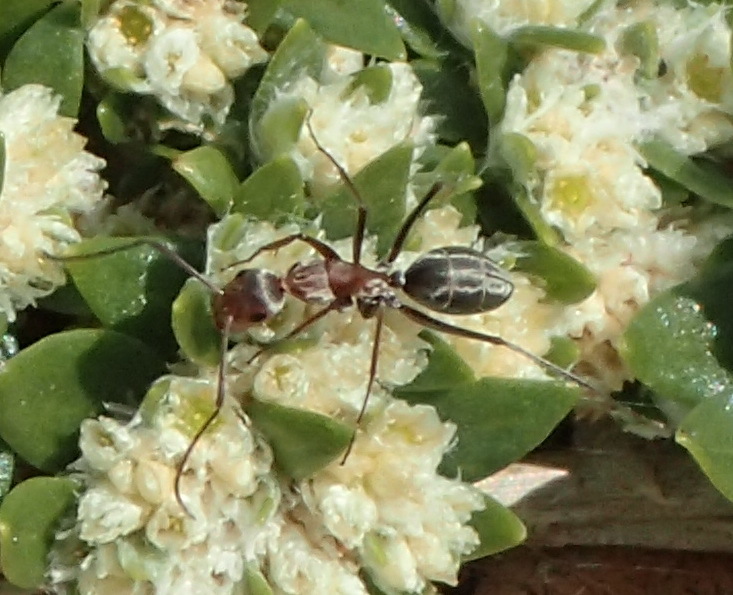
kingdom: Animalia
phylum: Arthropoda
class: Insecta
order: Hymenoptera
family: Formicidae
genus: Camponotus
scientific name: Camponotus vestitus
